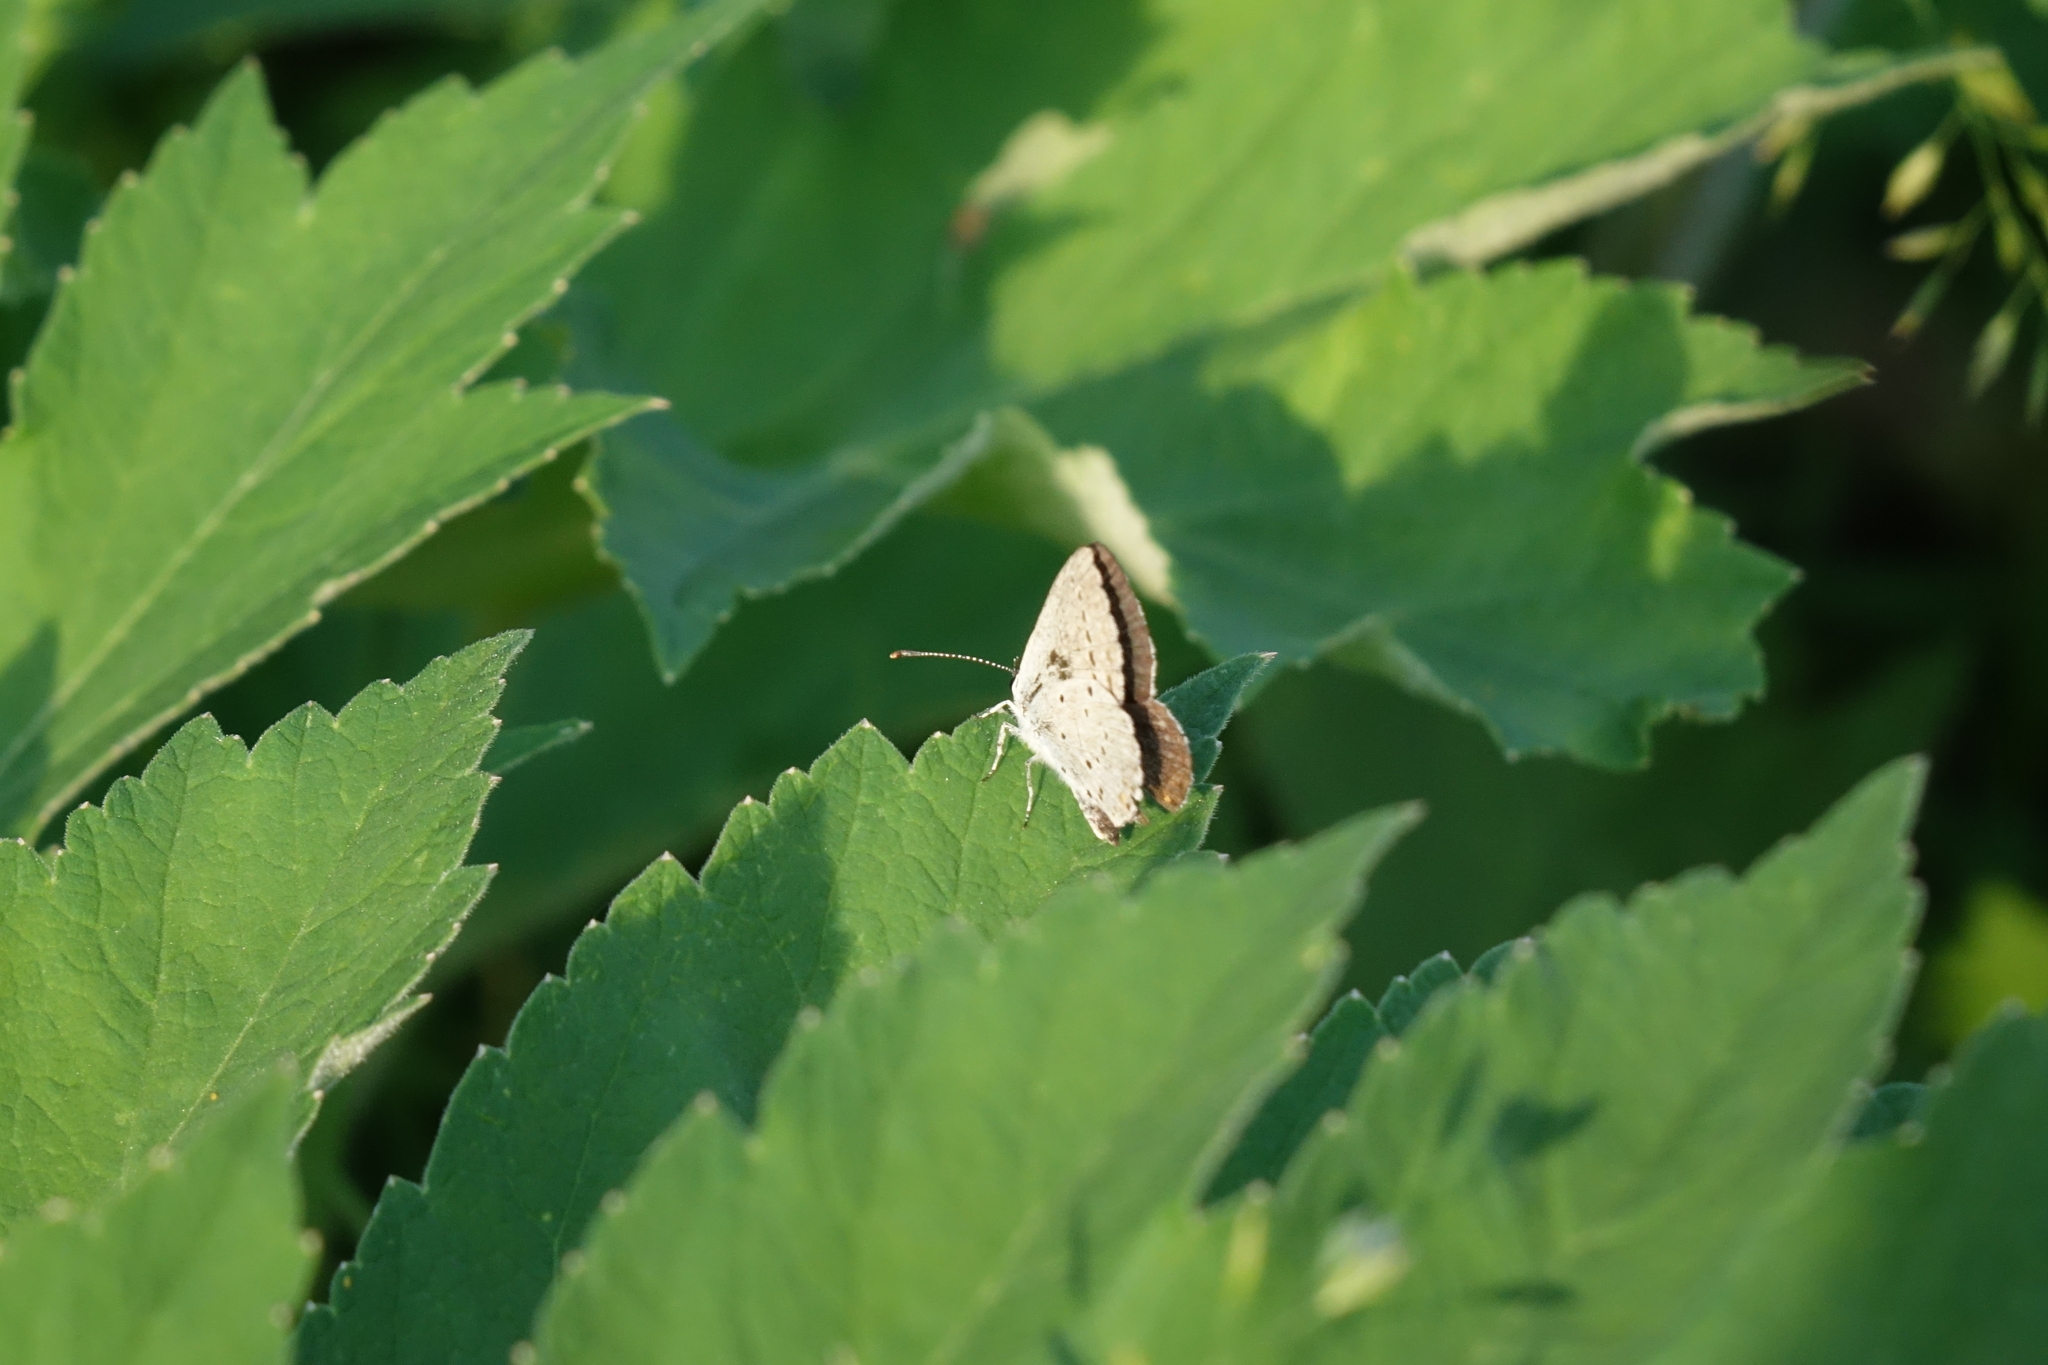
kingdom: Plantae
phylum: Tracheophyta
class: Magnoliopsida
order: Apiales
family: Apiaceae
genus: Heracleum
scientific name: Heracleum dissectum
